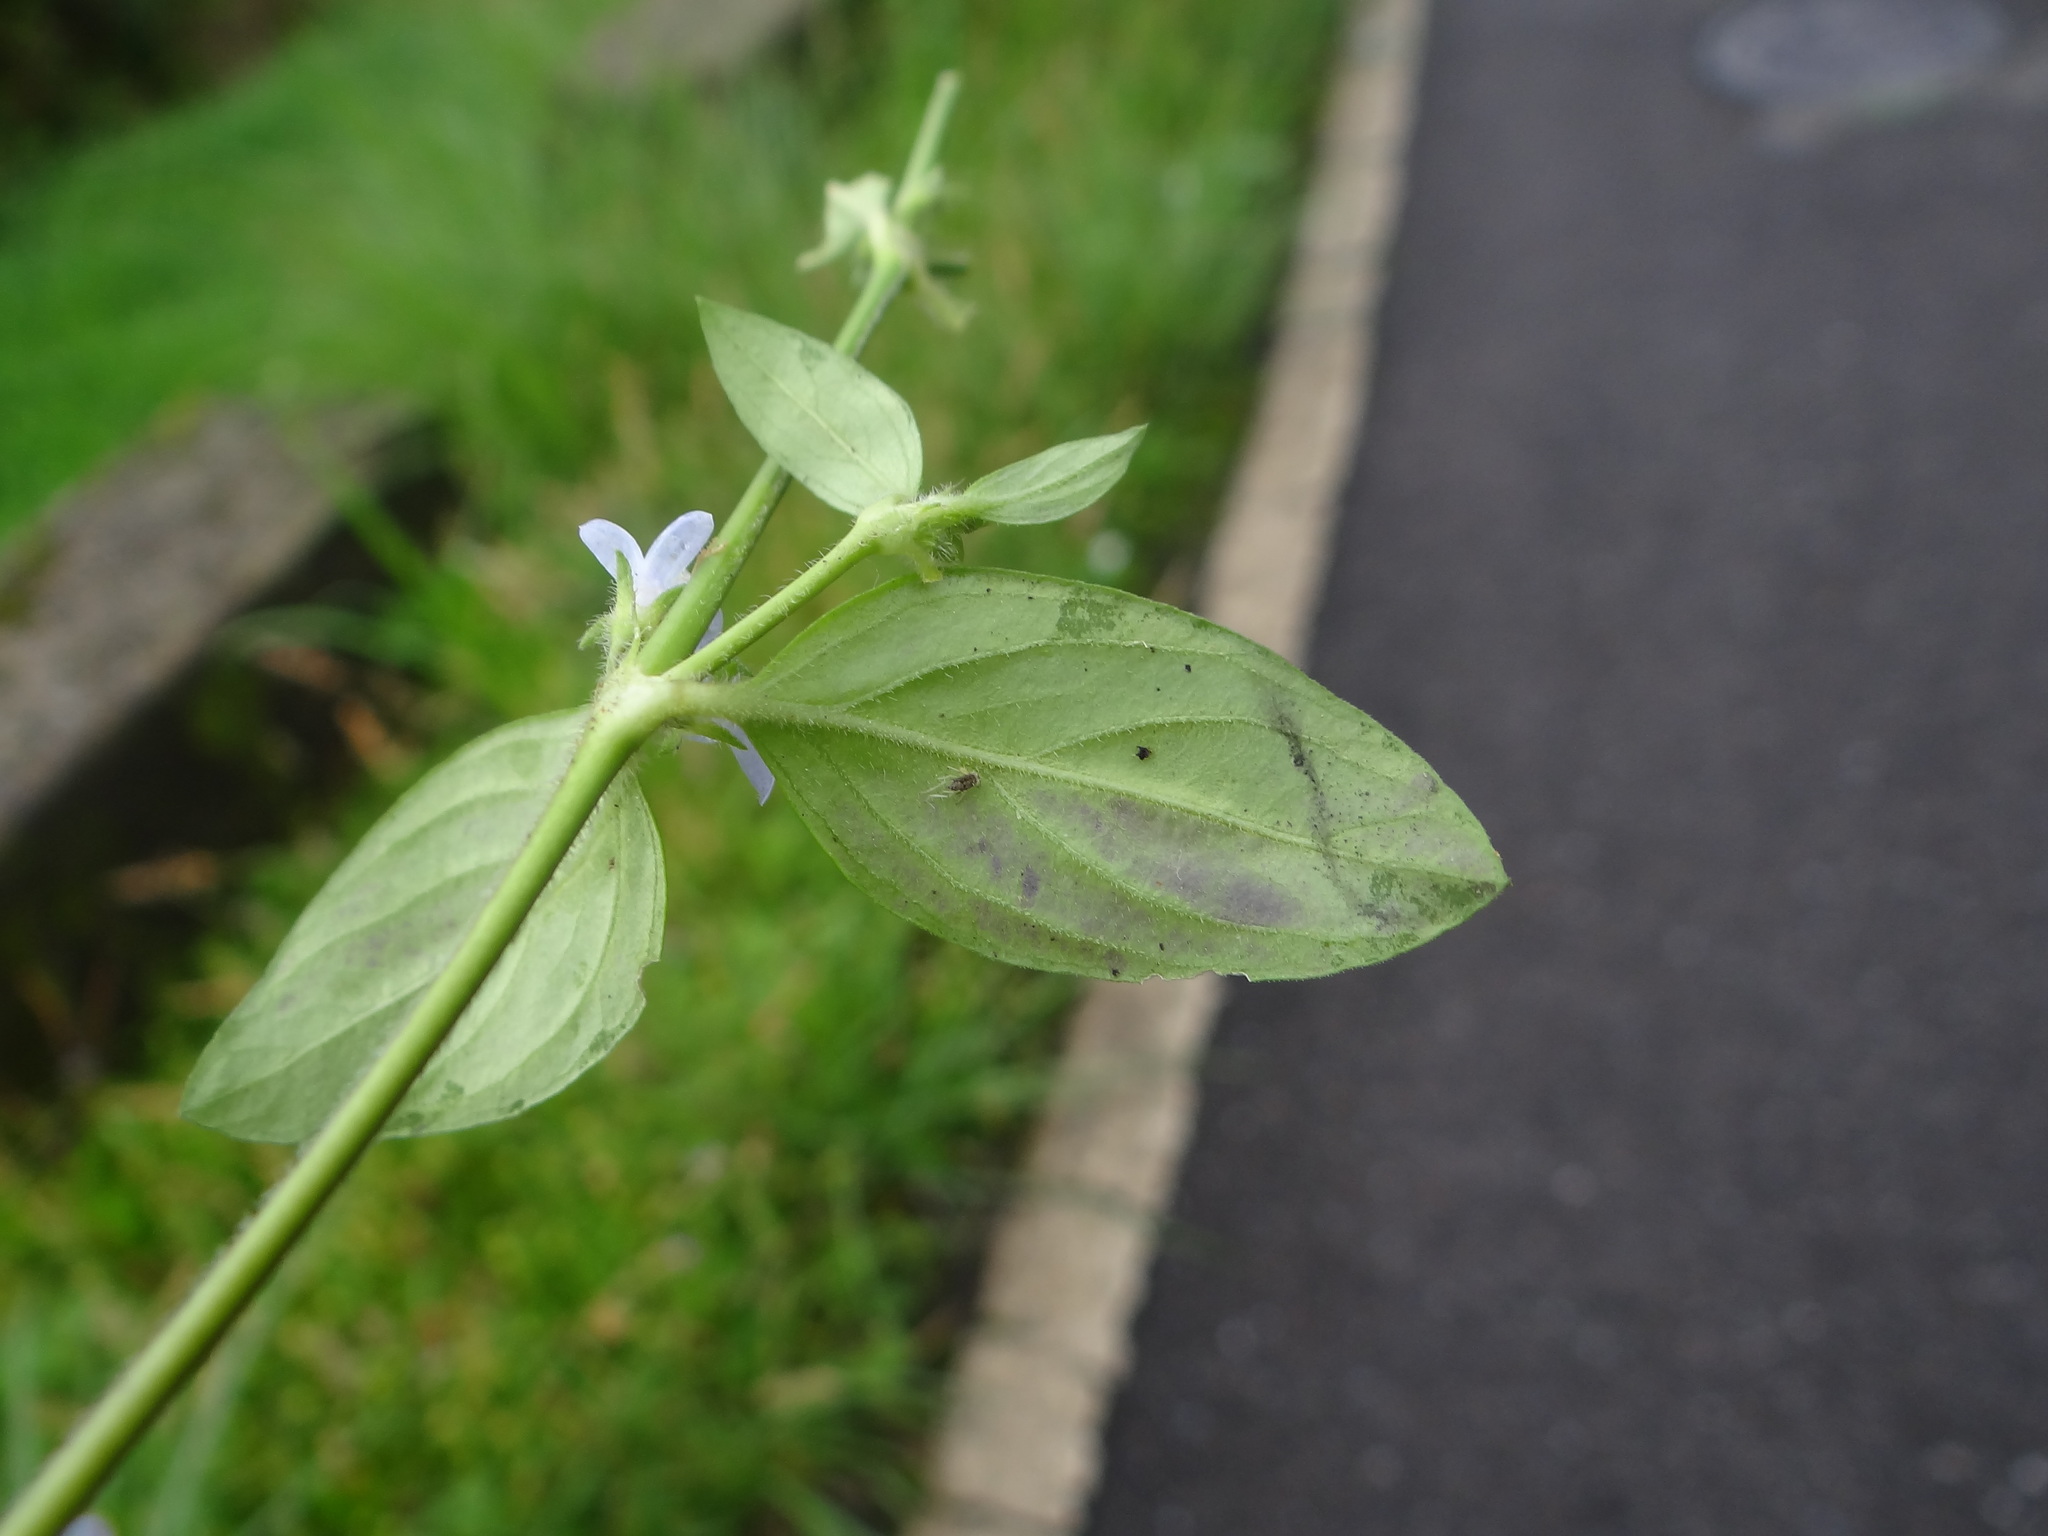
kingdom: Plantae
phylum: Tracheophyta
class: Magnoliopsida
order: Gentianales
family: Rubiaceae
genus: Spermacoce
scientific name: Spermacoce articularis
